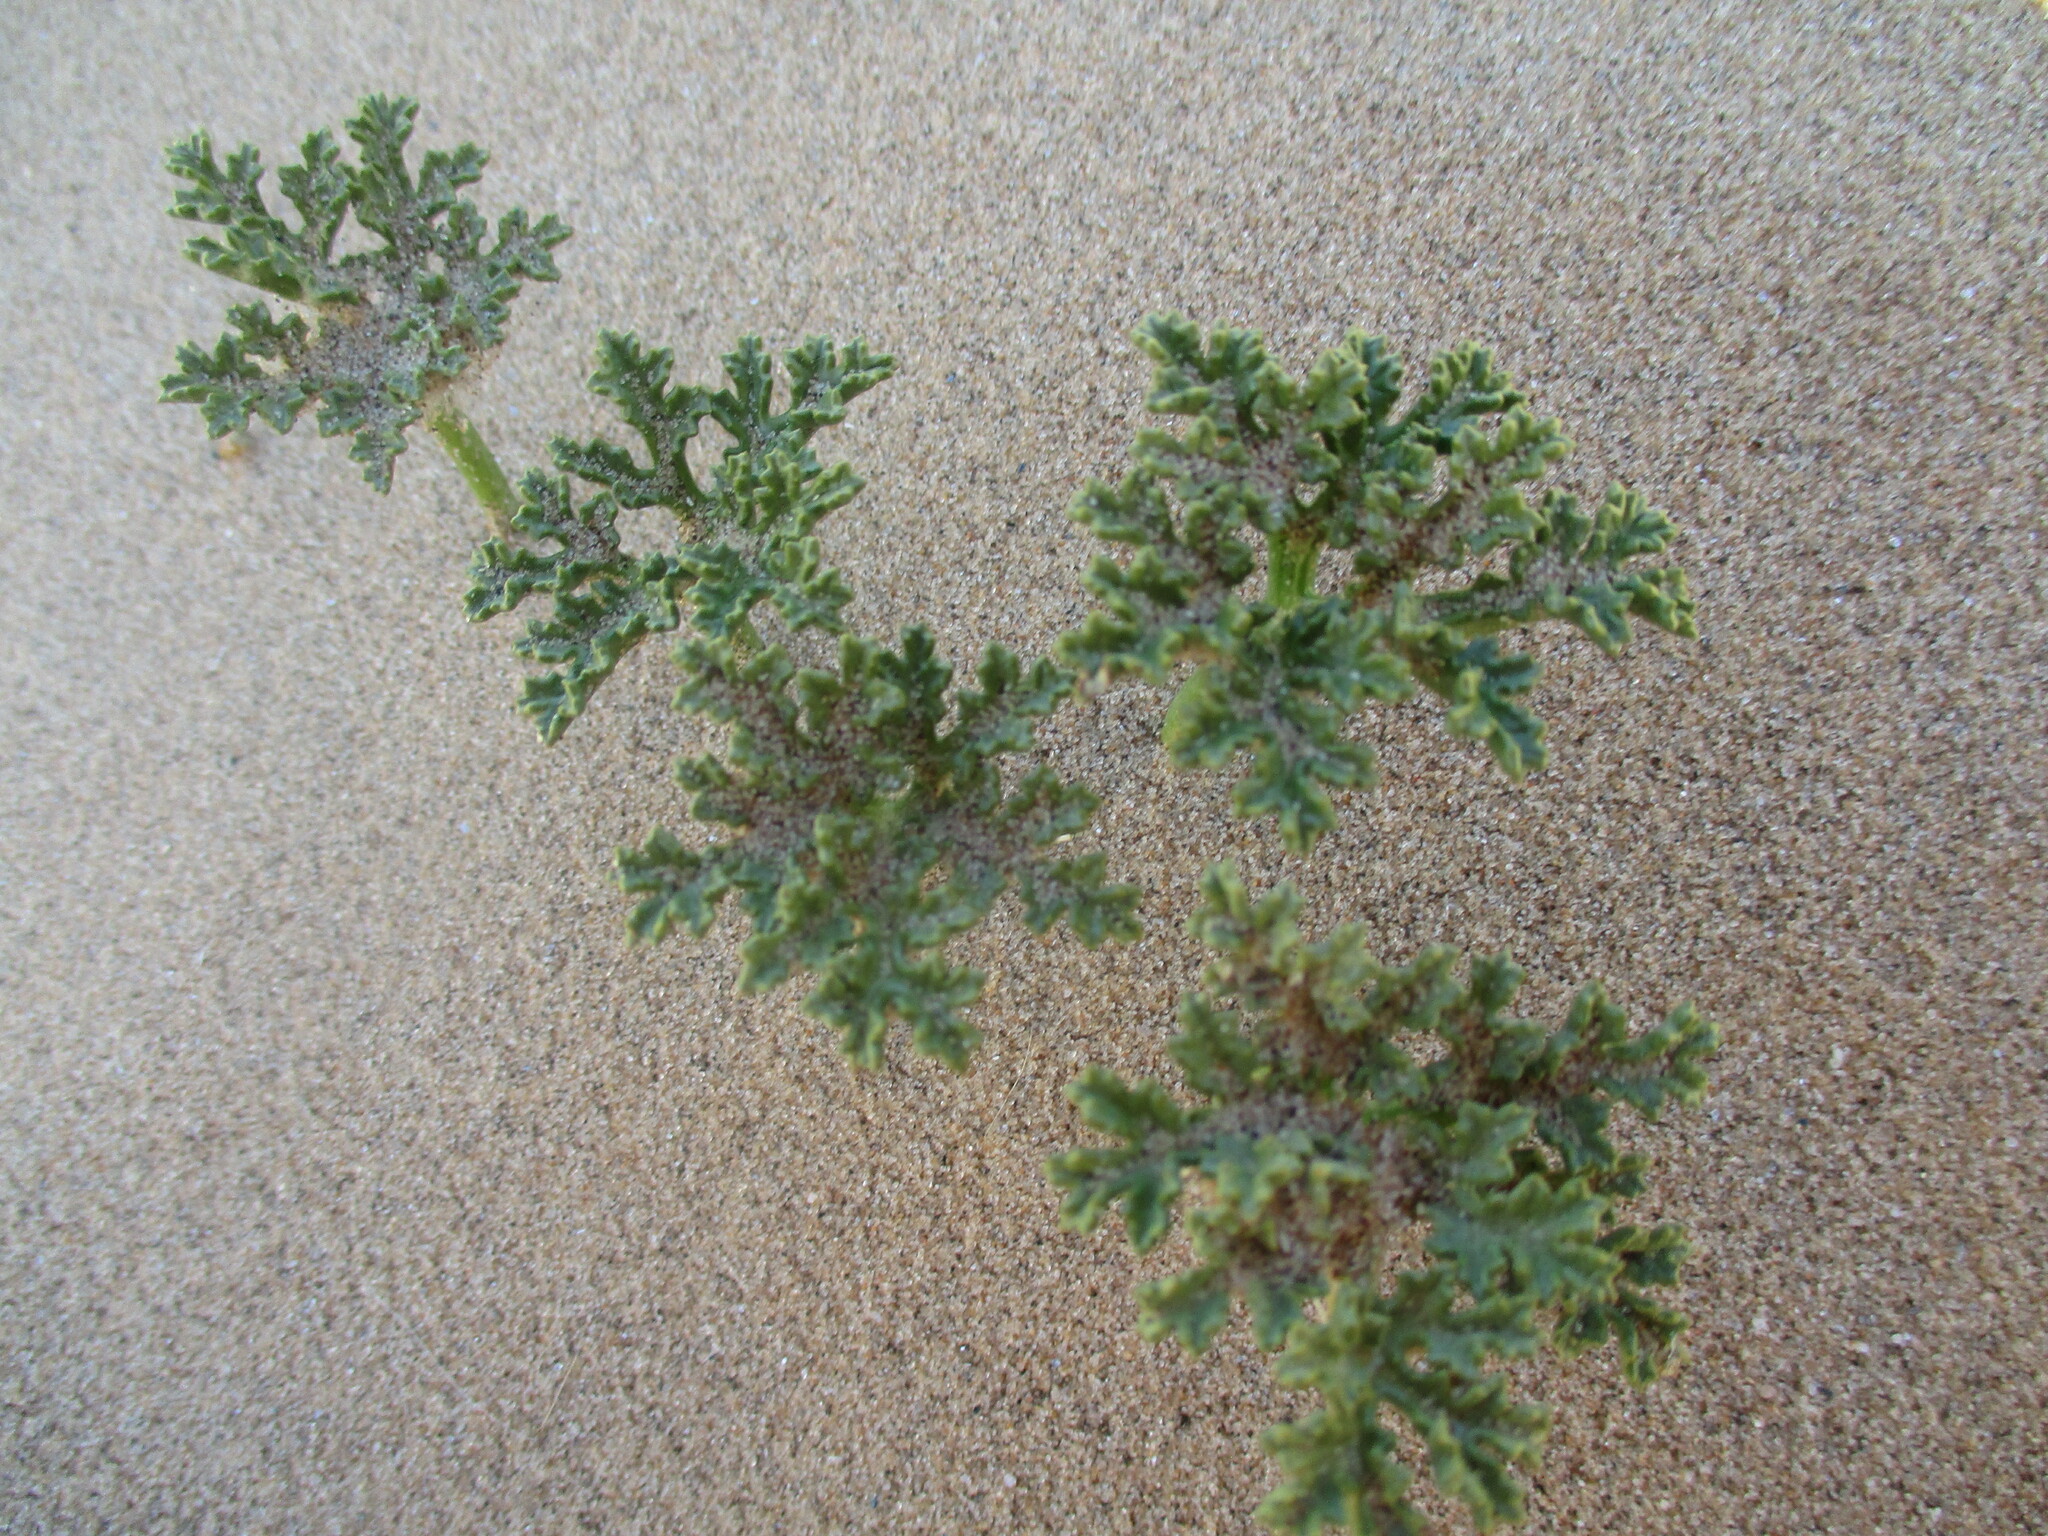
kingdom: Plantae
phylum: Tracheophyta
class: Magnoliopsida
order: Solanales
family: Convolvulaceae
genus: Distimake
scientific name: Distimake multisectus
